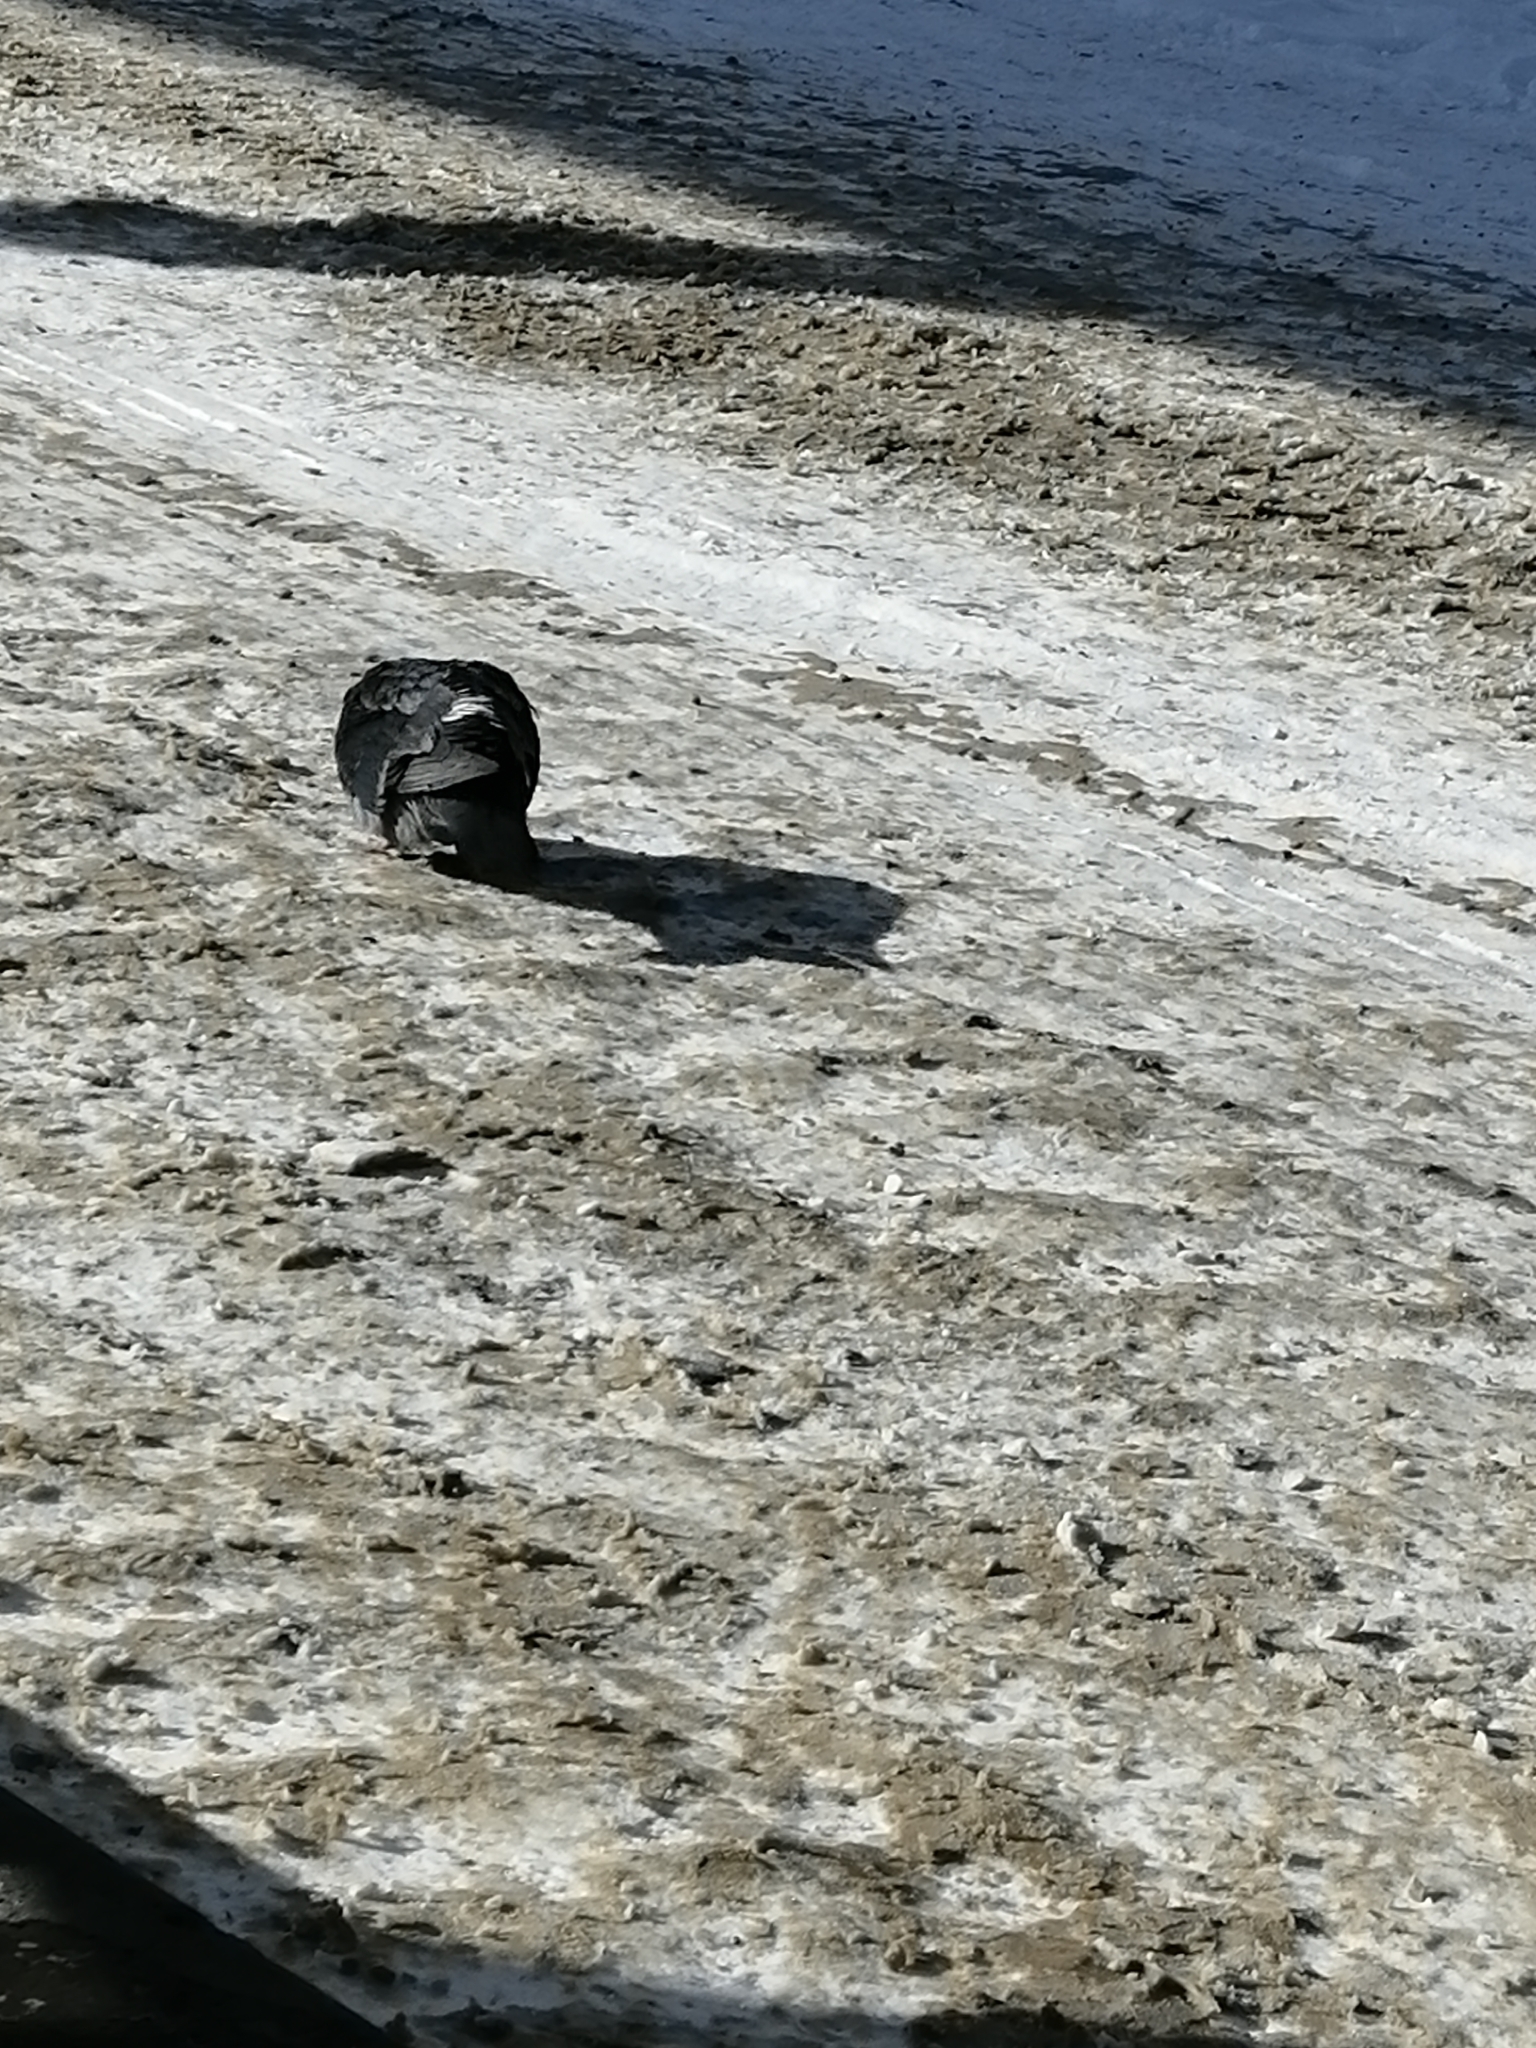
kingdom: Animalia
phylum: Chordata
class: Aves
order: Columbiformes
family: Columbidae
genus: Columba
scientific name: Columba livia
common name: Rock pigeon
